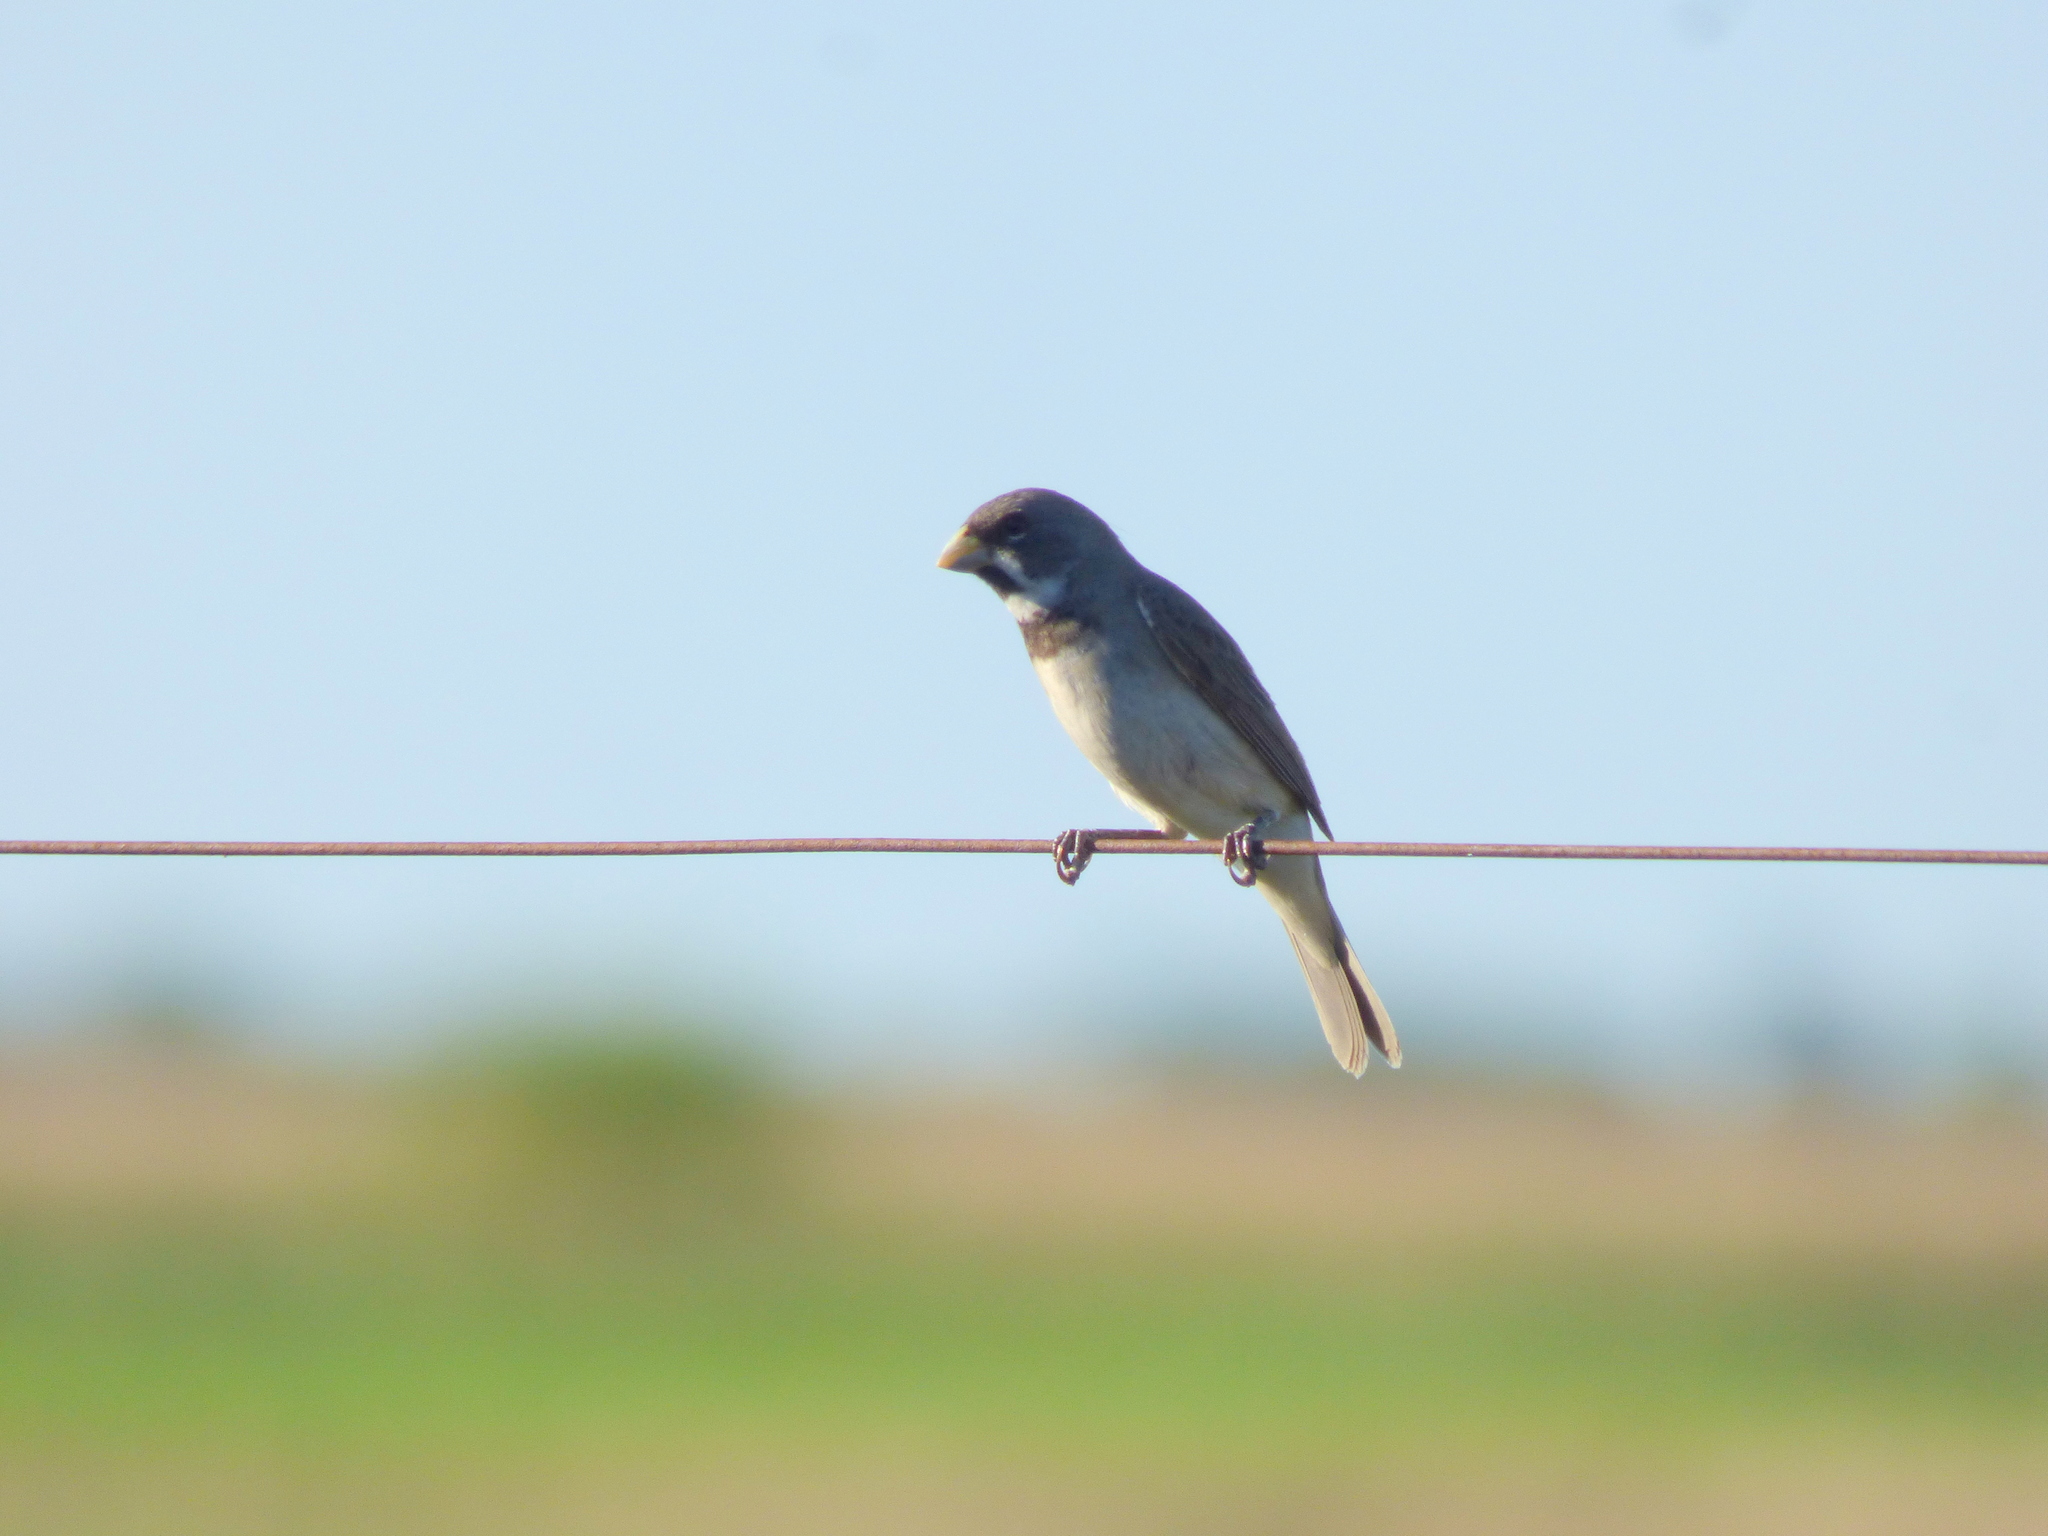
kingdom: Animalia
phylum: Chordata
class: Aves
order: Passeriformes
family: Thraupidae
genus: Sporophila
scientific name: Sporophila caerulescens
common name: Double-collared seedeater
